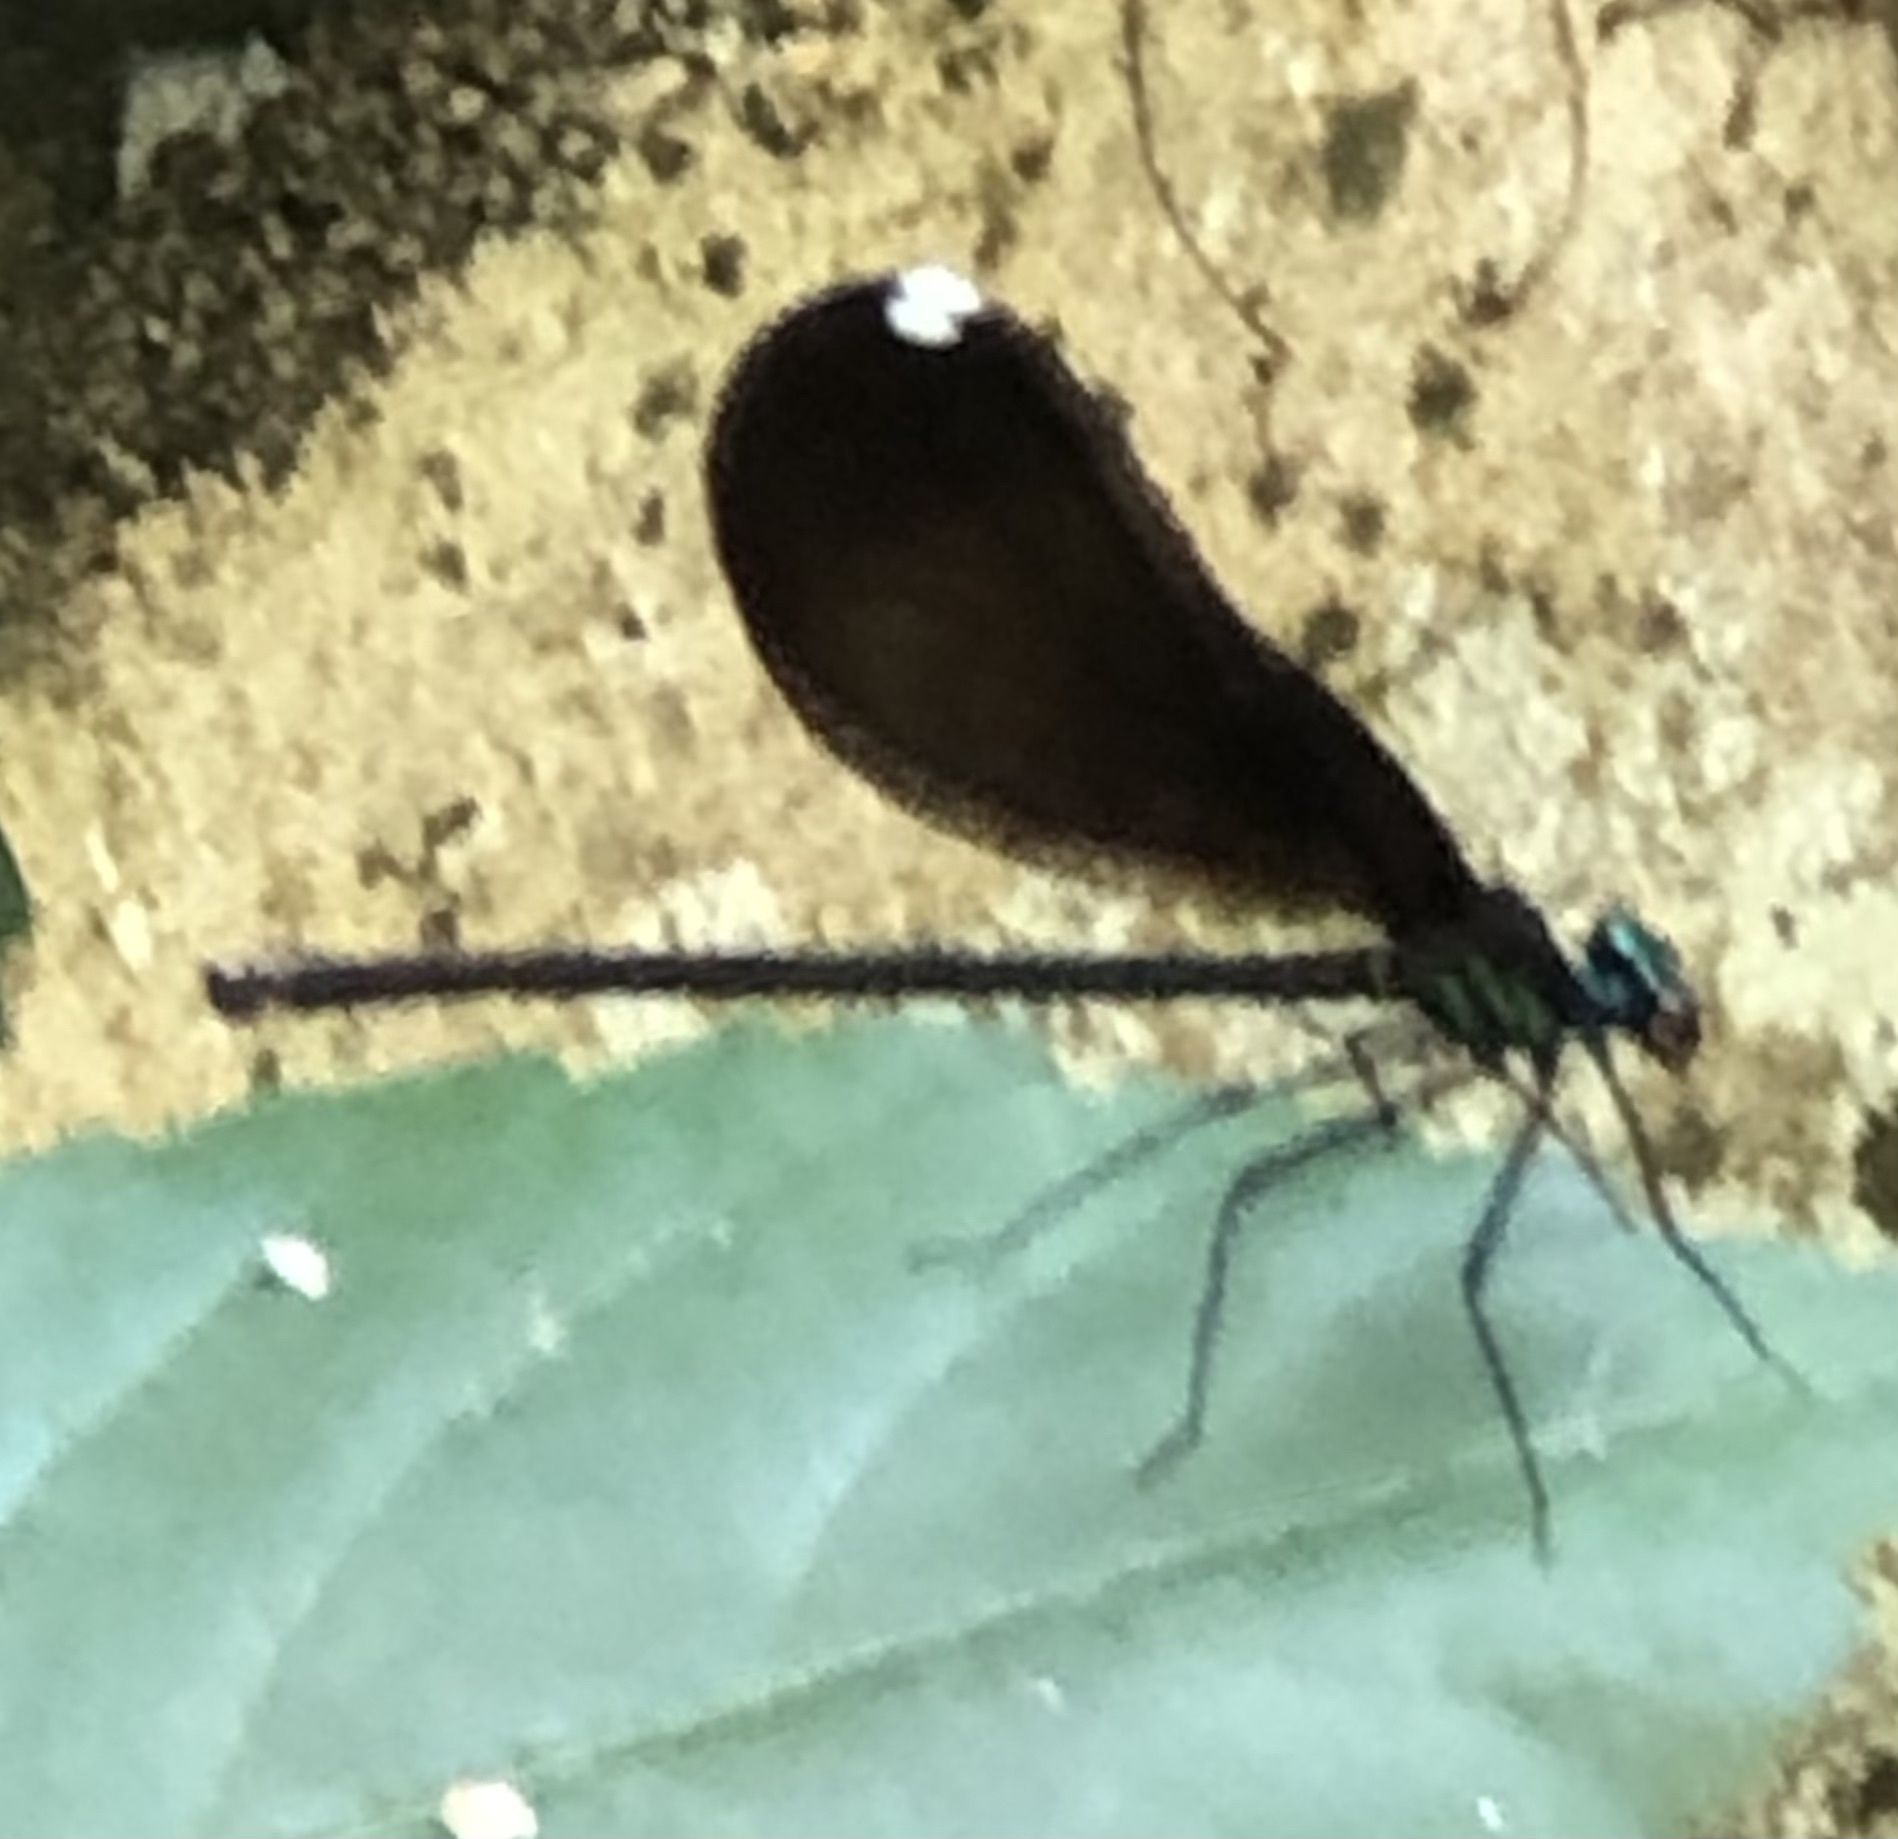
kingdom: Animalia
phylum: Arthropoda
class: Insecta
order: Odonata
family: Calopterygidae
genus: Calopteryx
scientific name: Calopteryx maculata
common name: Ebony jewelwing
